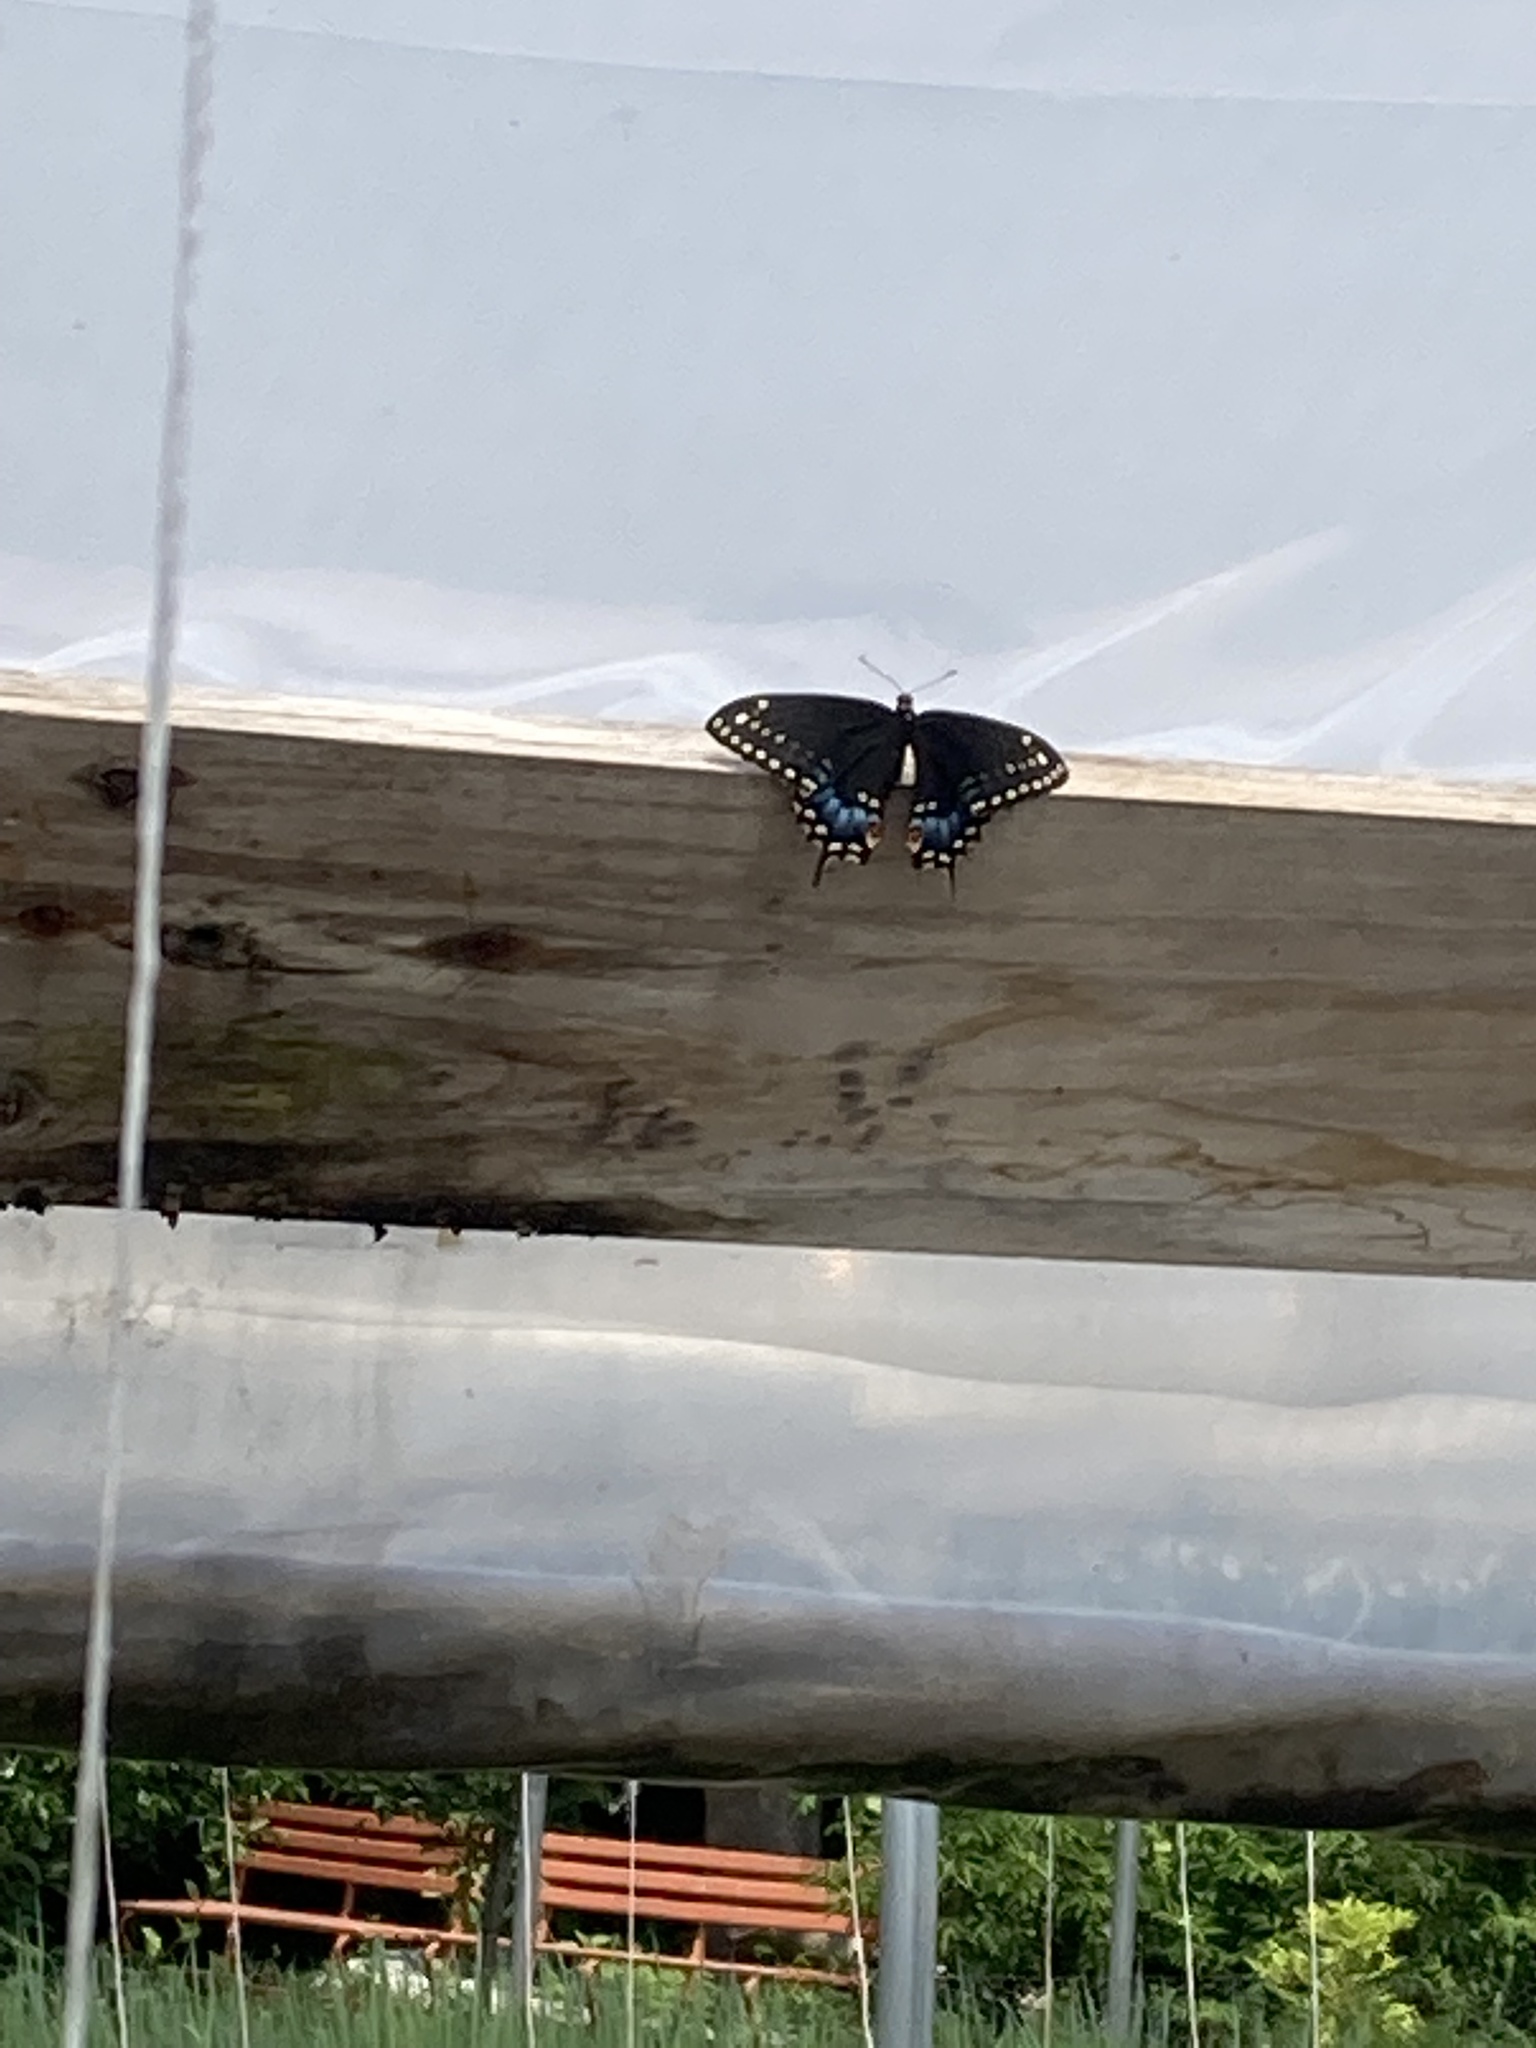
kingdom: Animalia
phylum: Arthropoda
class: Insecta
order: Lepidoptera
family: Papilionidae
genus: Papilio
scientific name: Papilio polyxenes
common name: Black swallowtail
